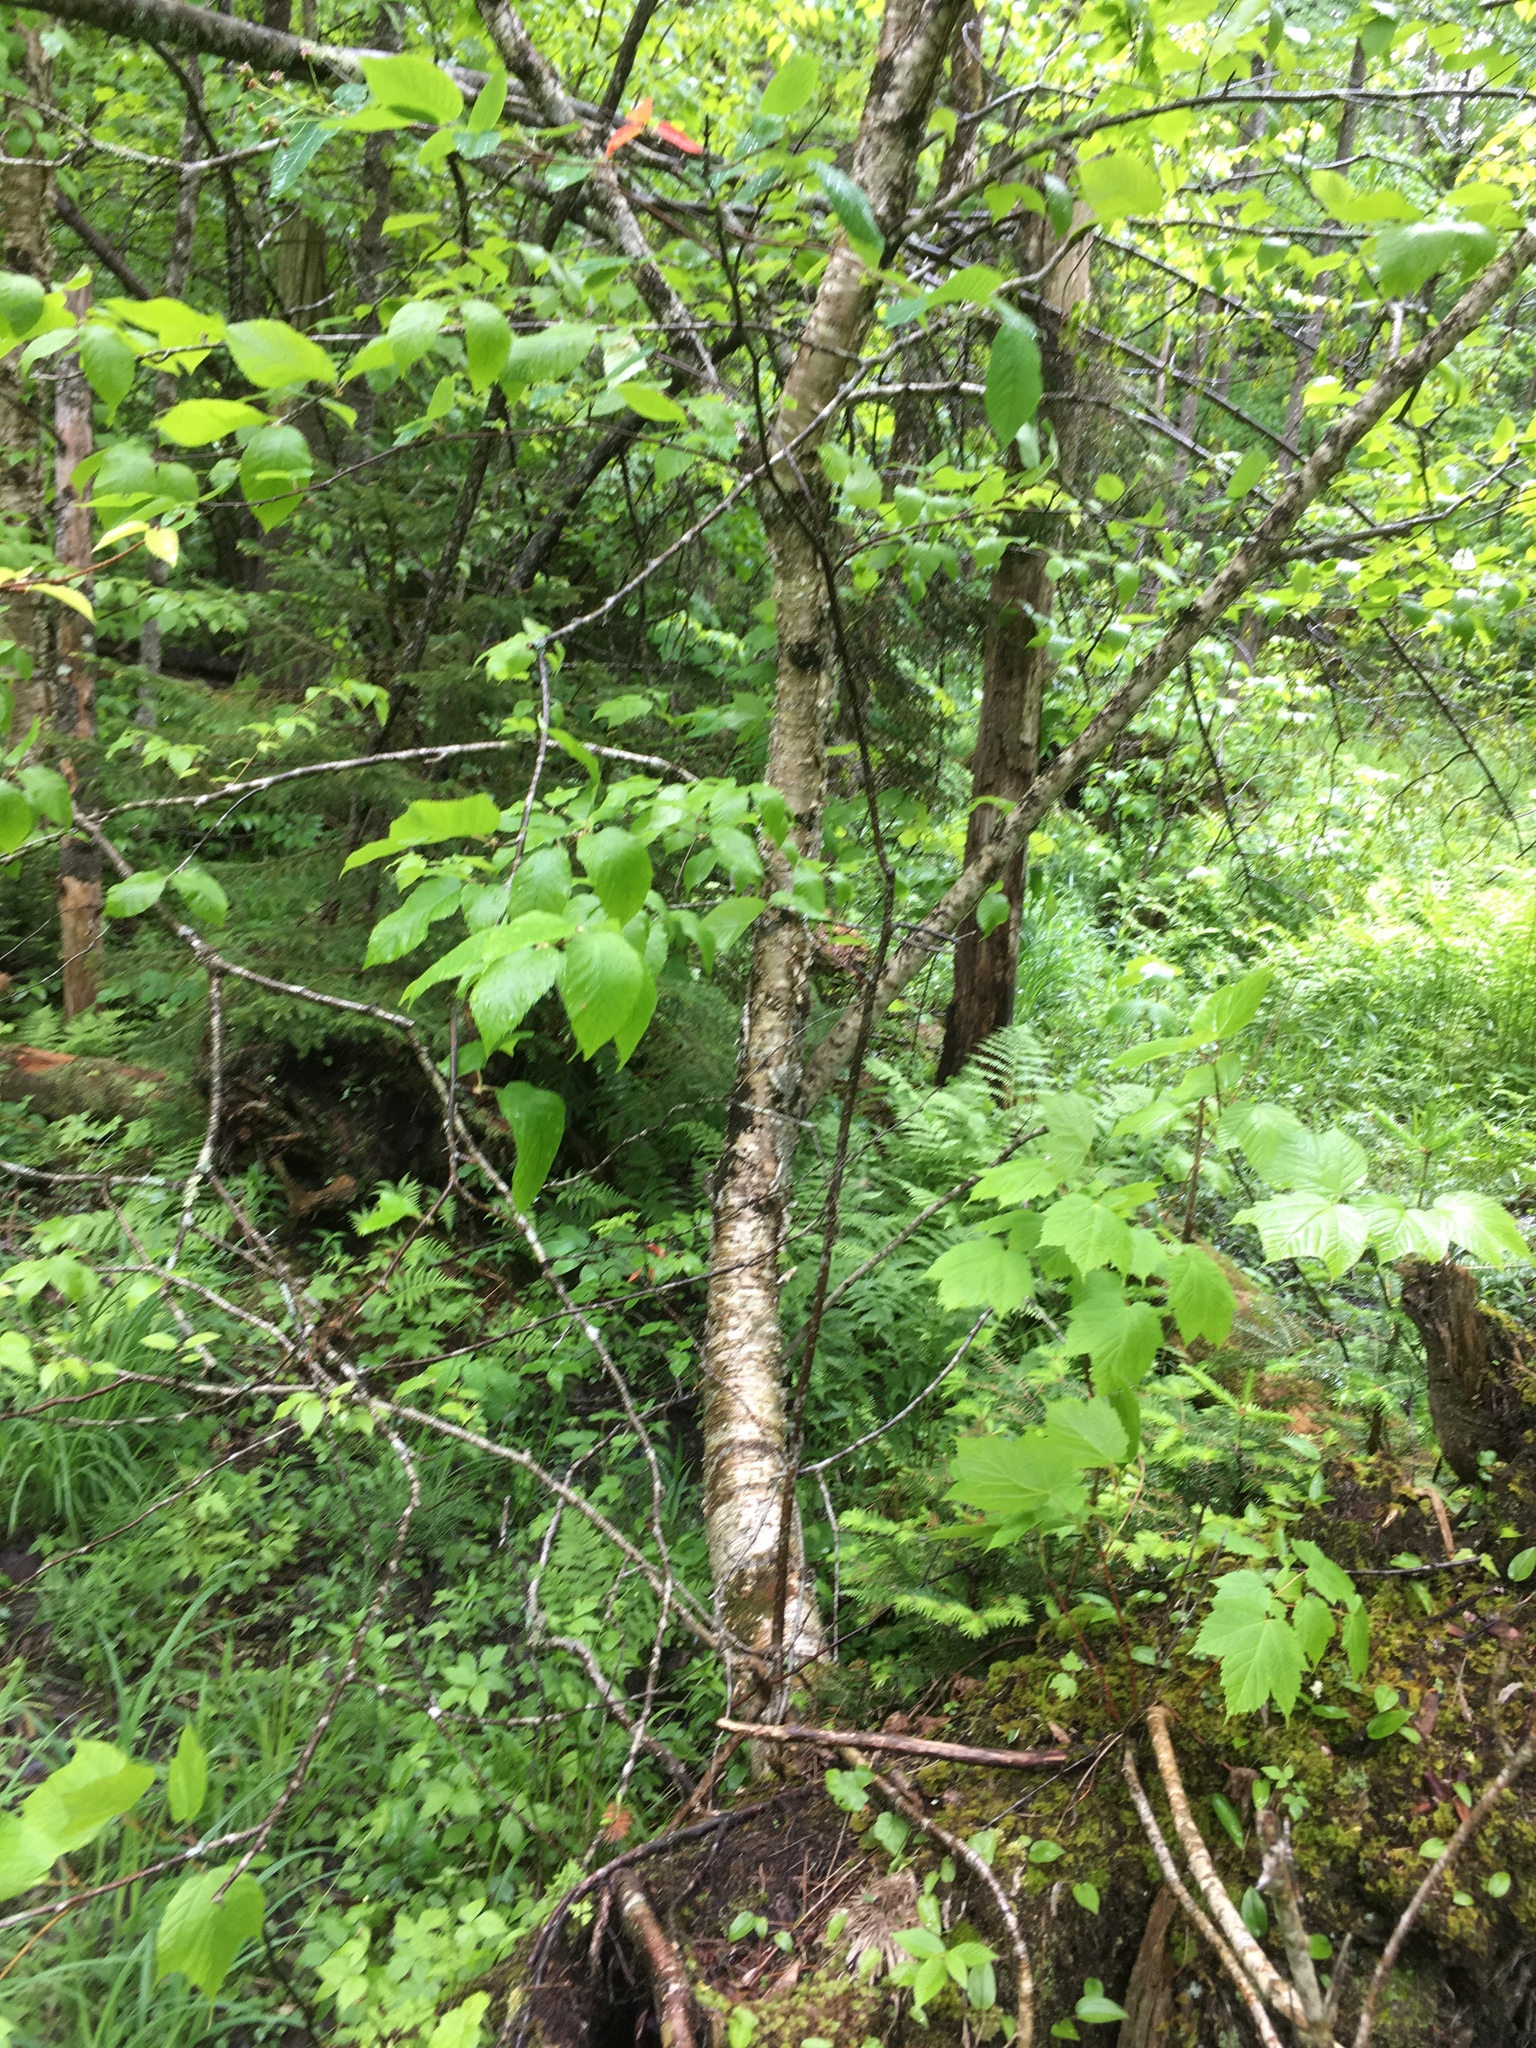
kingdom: Plantae
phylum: Tracheophyta
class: Magnoliopsida
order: Fagales
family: Betulaceae
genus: Betula
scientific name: Betula alleghaniensis
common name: Yellow birch
